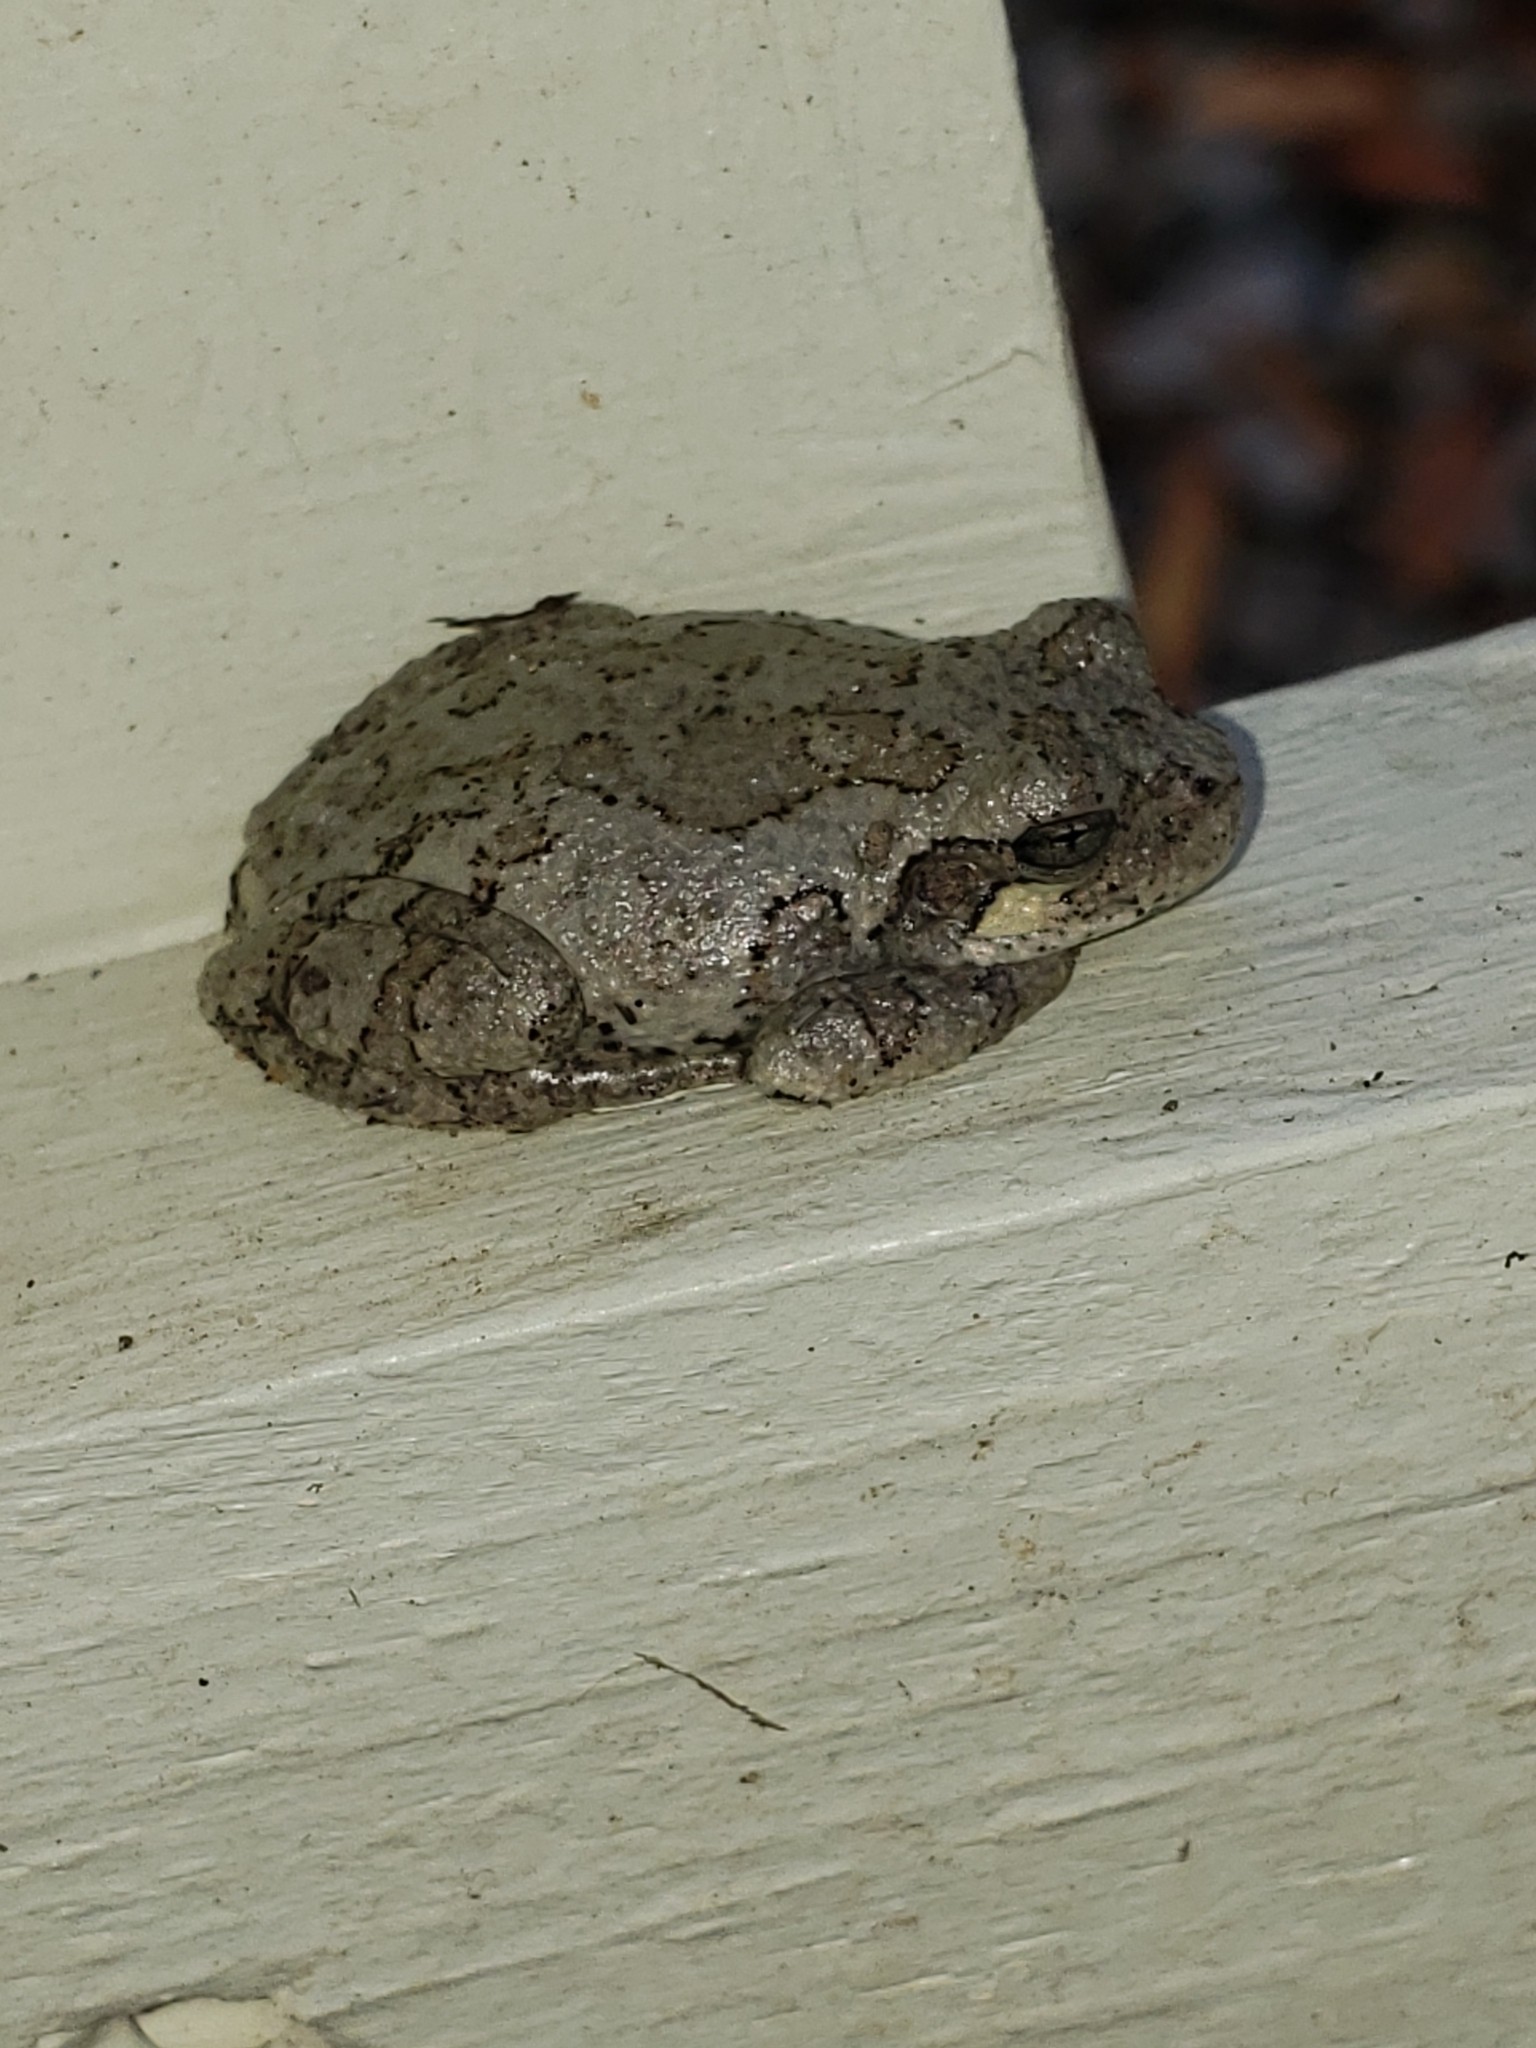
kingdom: Animalia
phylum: Chordata
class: Amphibia
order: Anura
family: Hylidae
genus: Hyla
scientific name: Hyla
